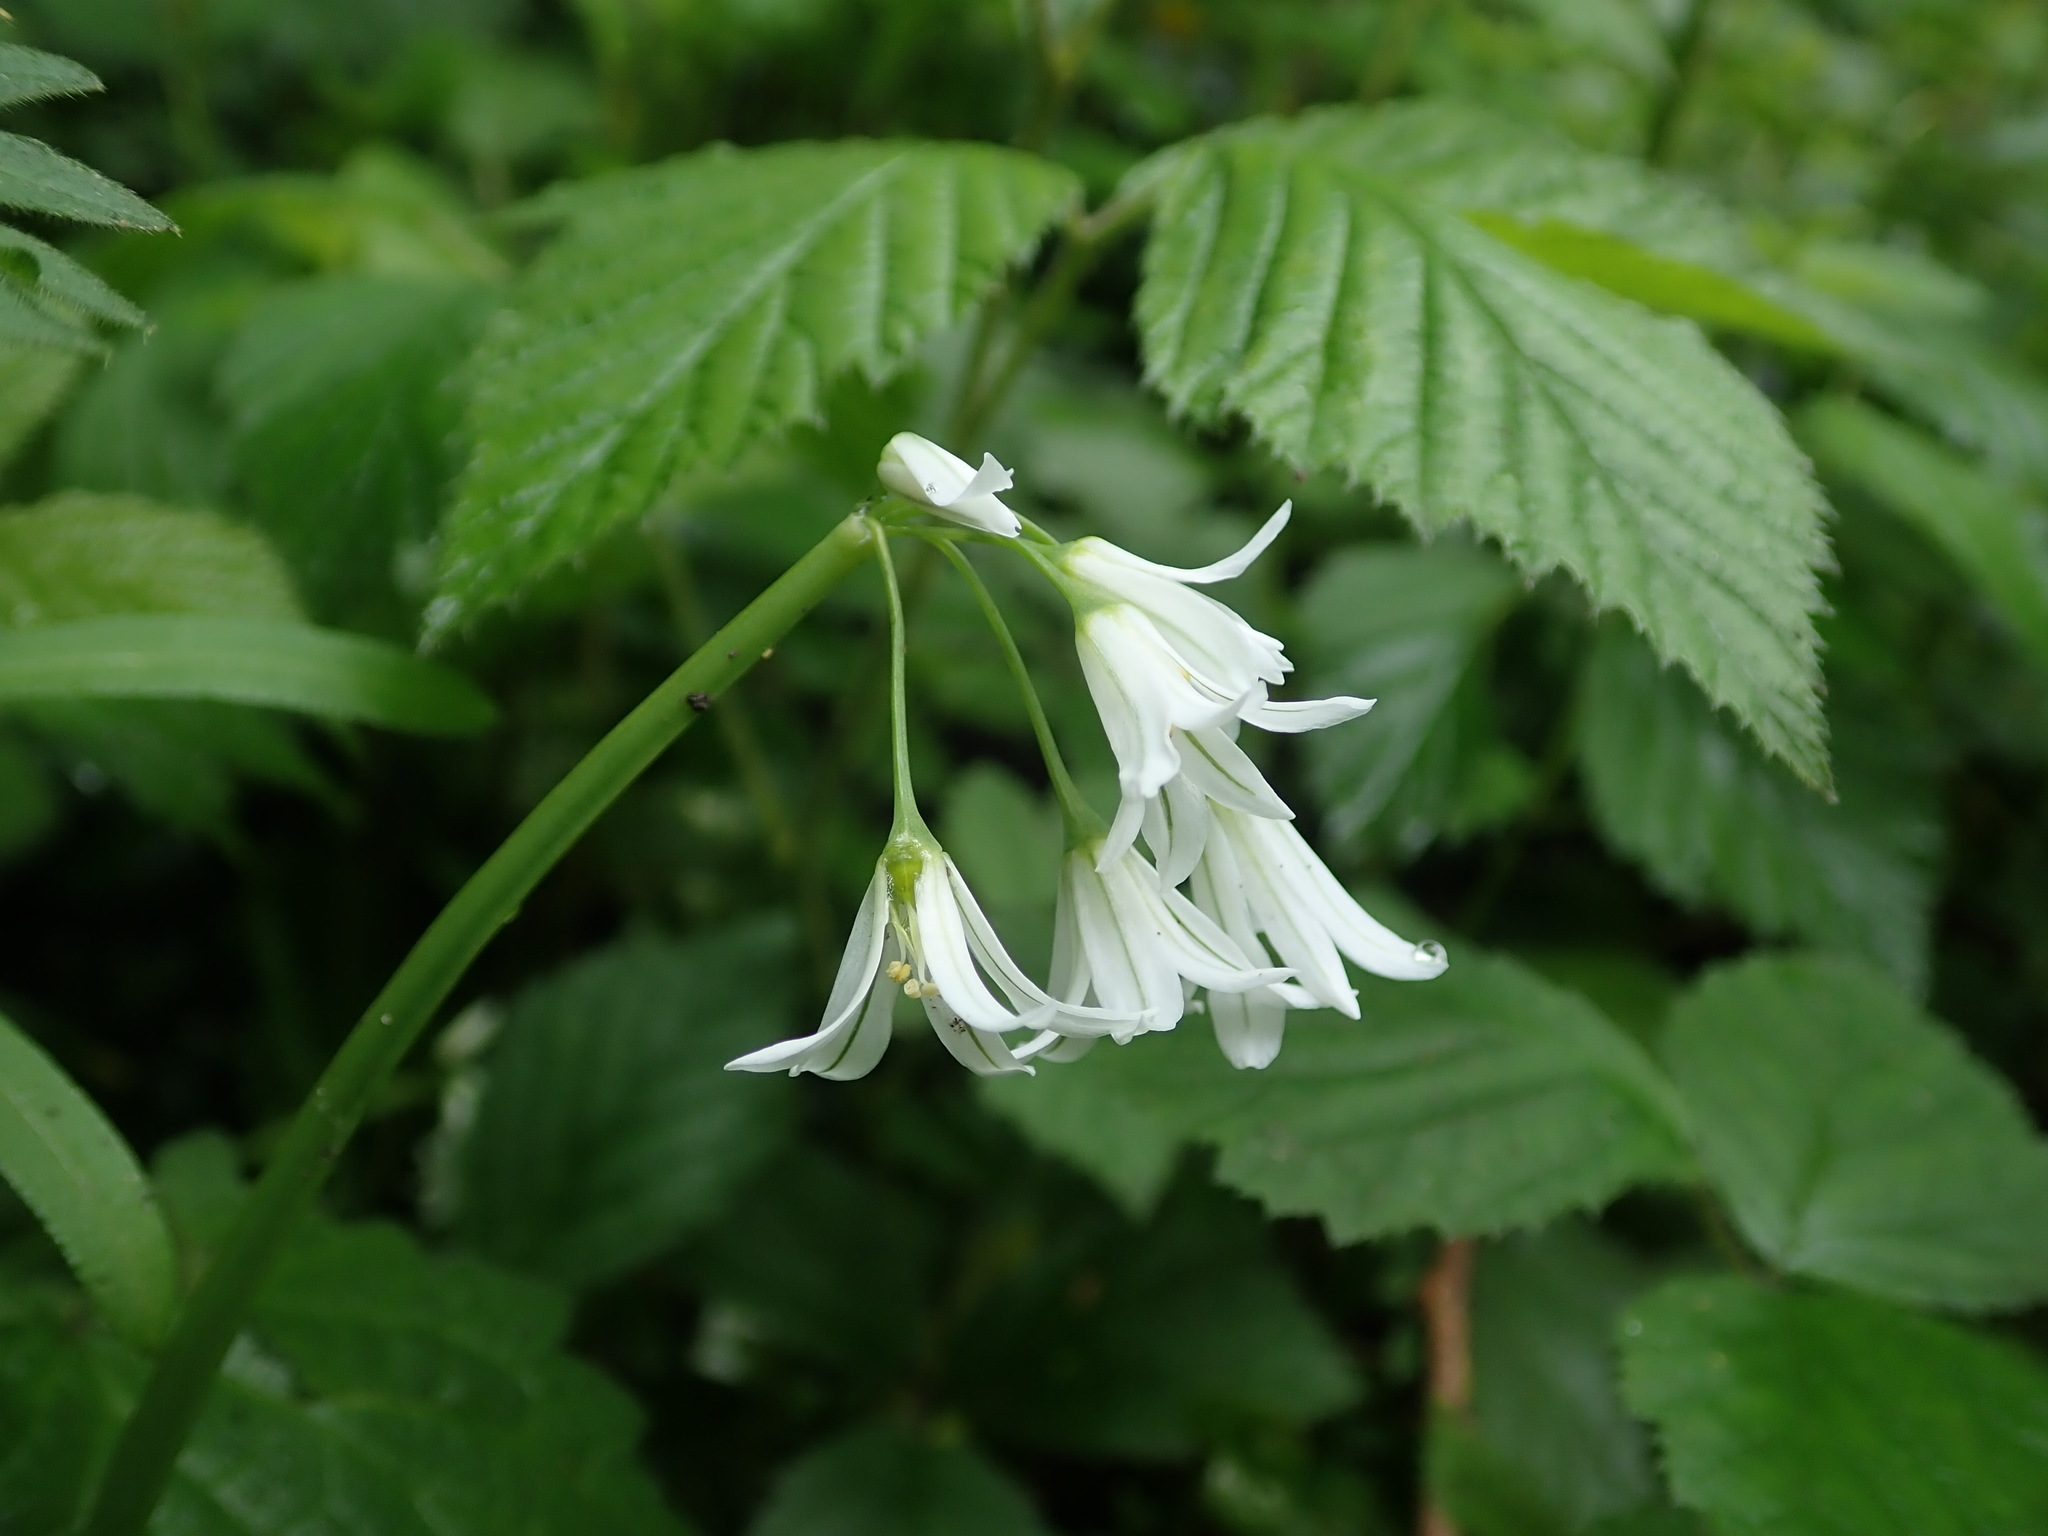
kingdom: Plantae
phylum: Tracheophyta
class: Liliopsida
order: Asparagales
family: Amaryllidaceae
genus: Allium
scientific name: Allium triquetrum
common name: Three-cornered garlic
